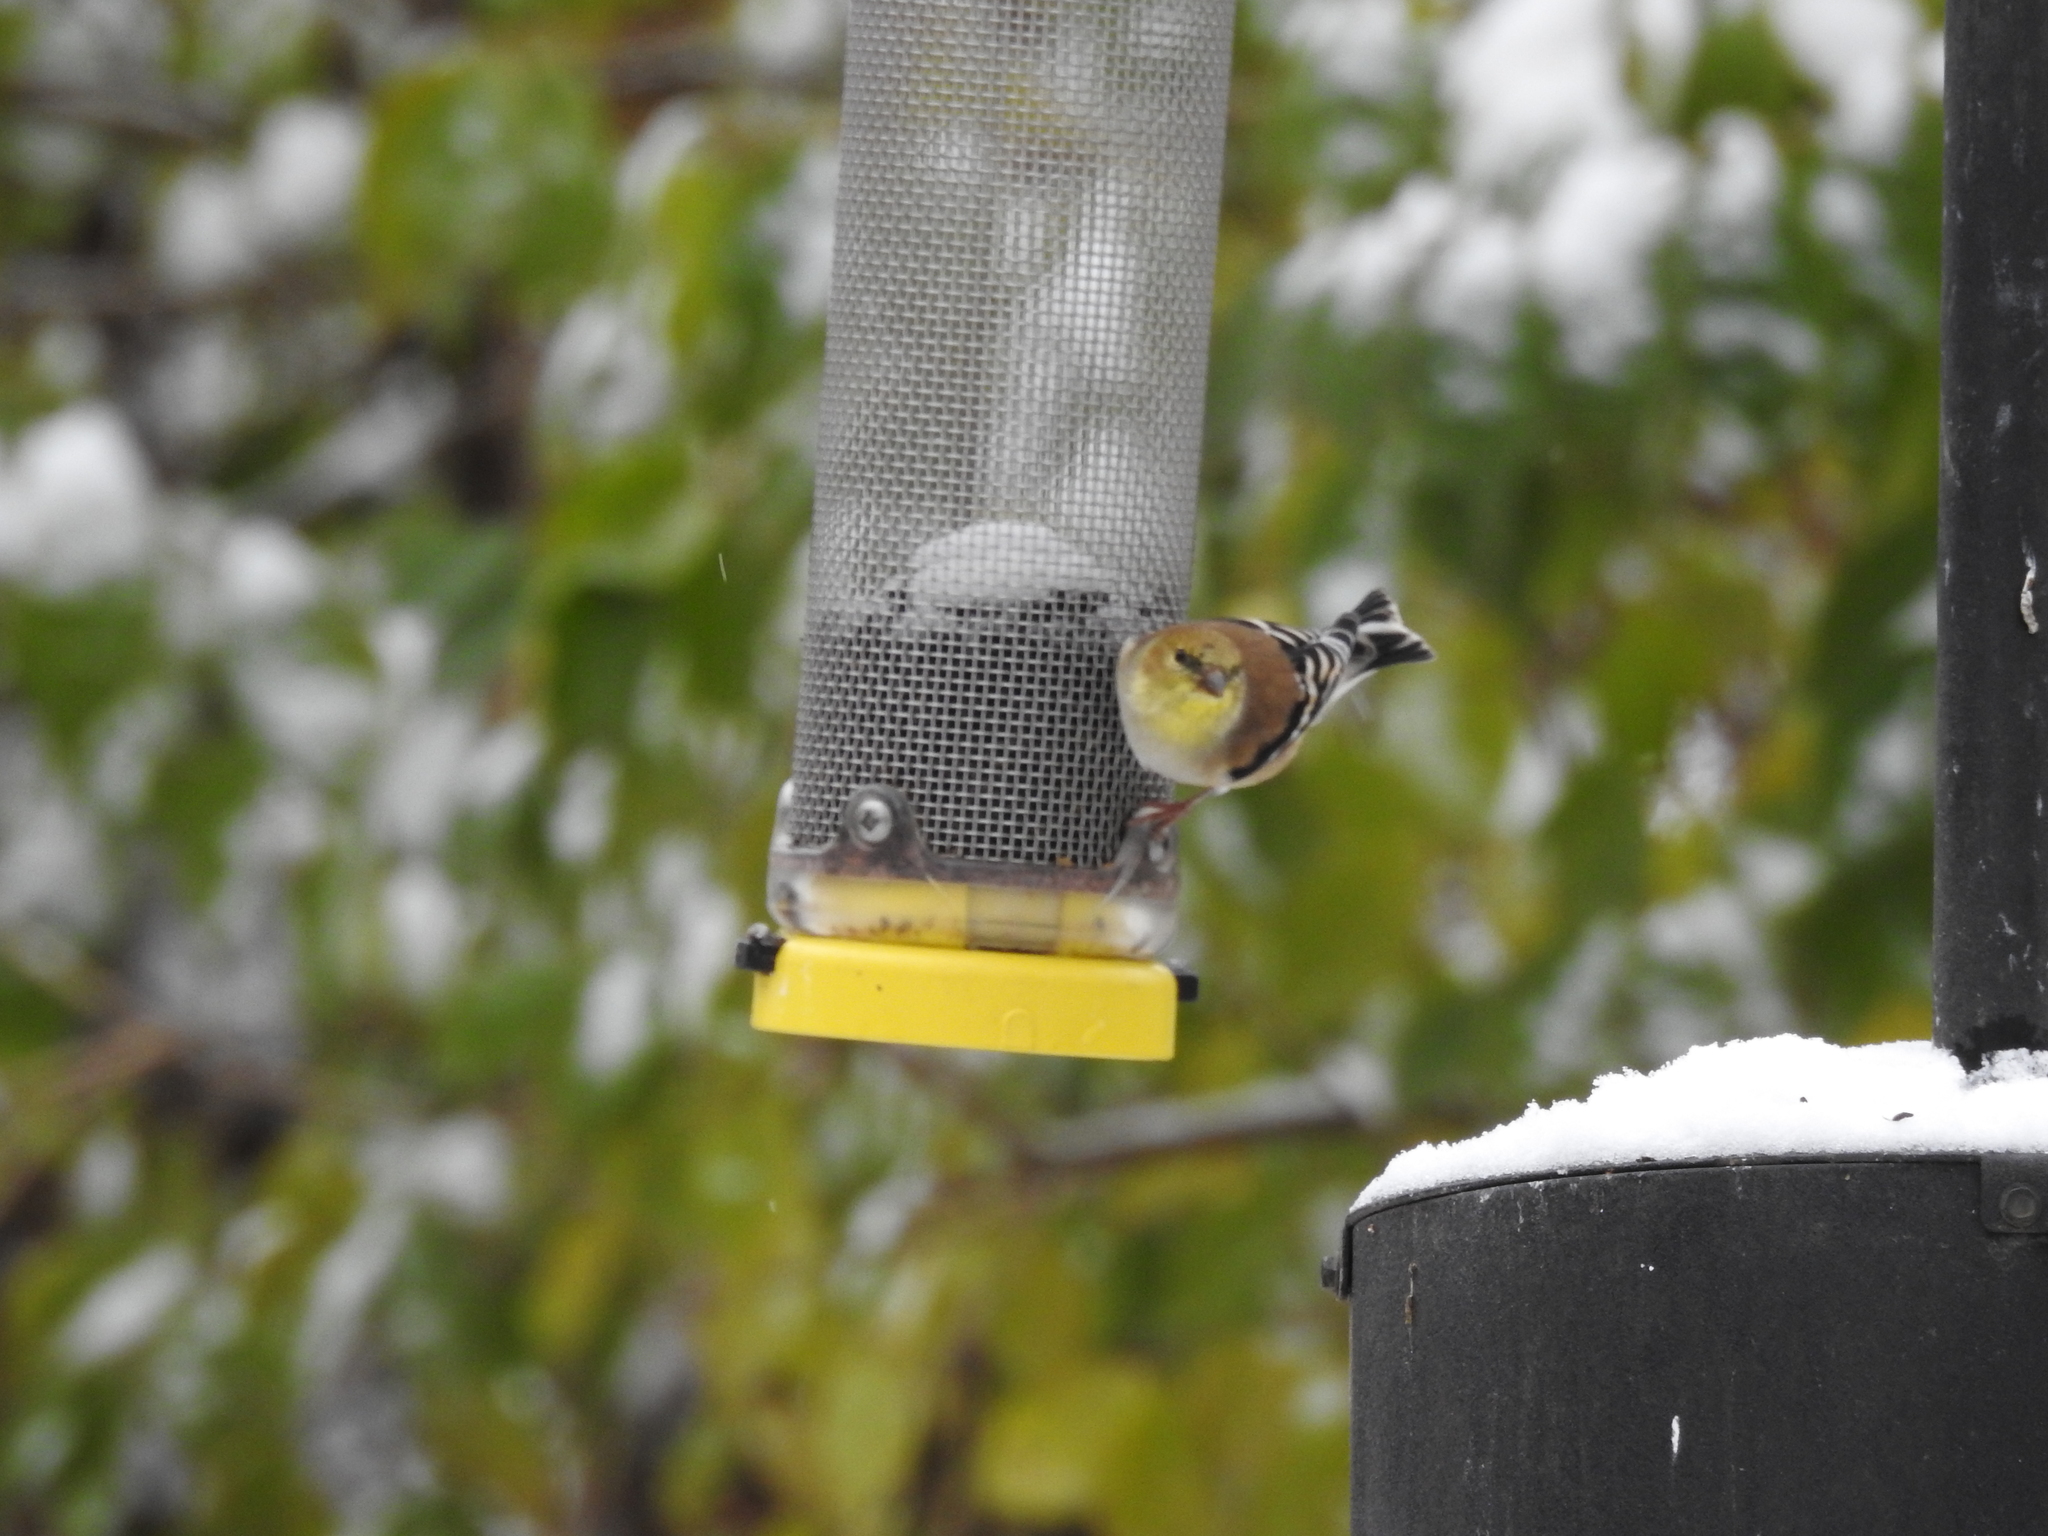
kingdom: Animalia
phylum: Chordata
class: Aves
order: Passeriformes
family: Fringillidae
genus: Spinus
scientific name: Spinus tristis
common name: American goldfinch
